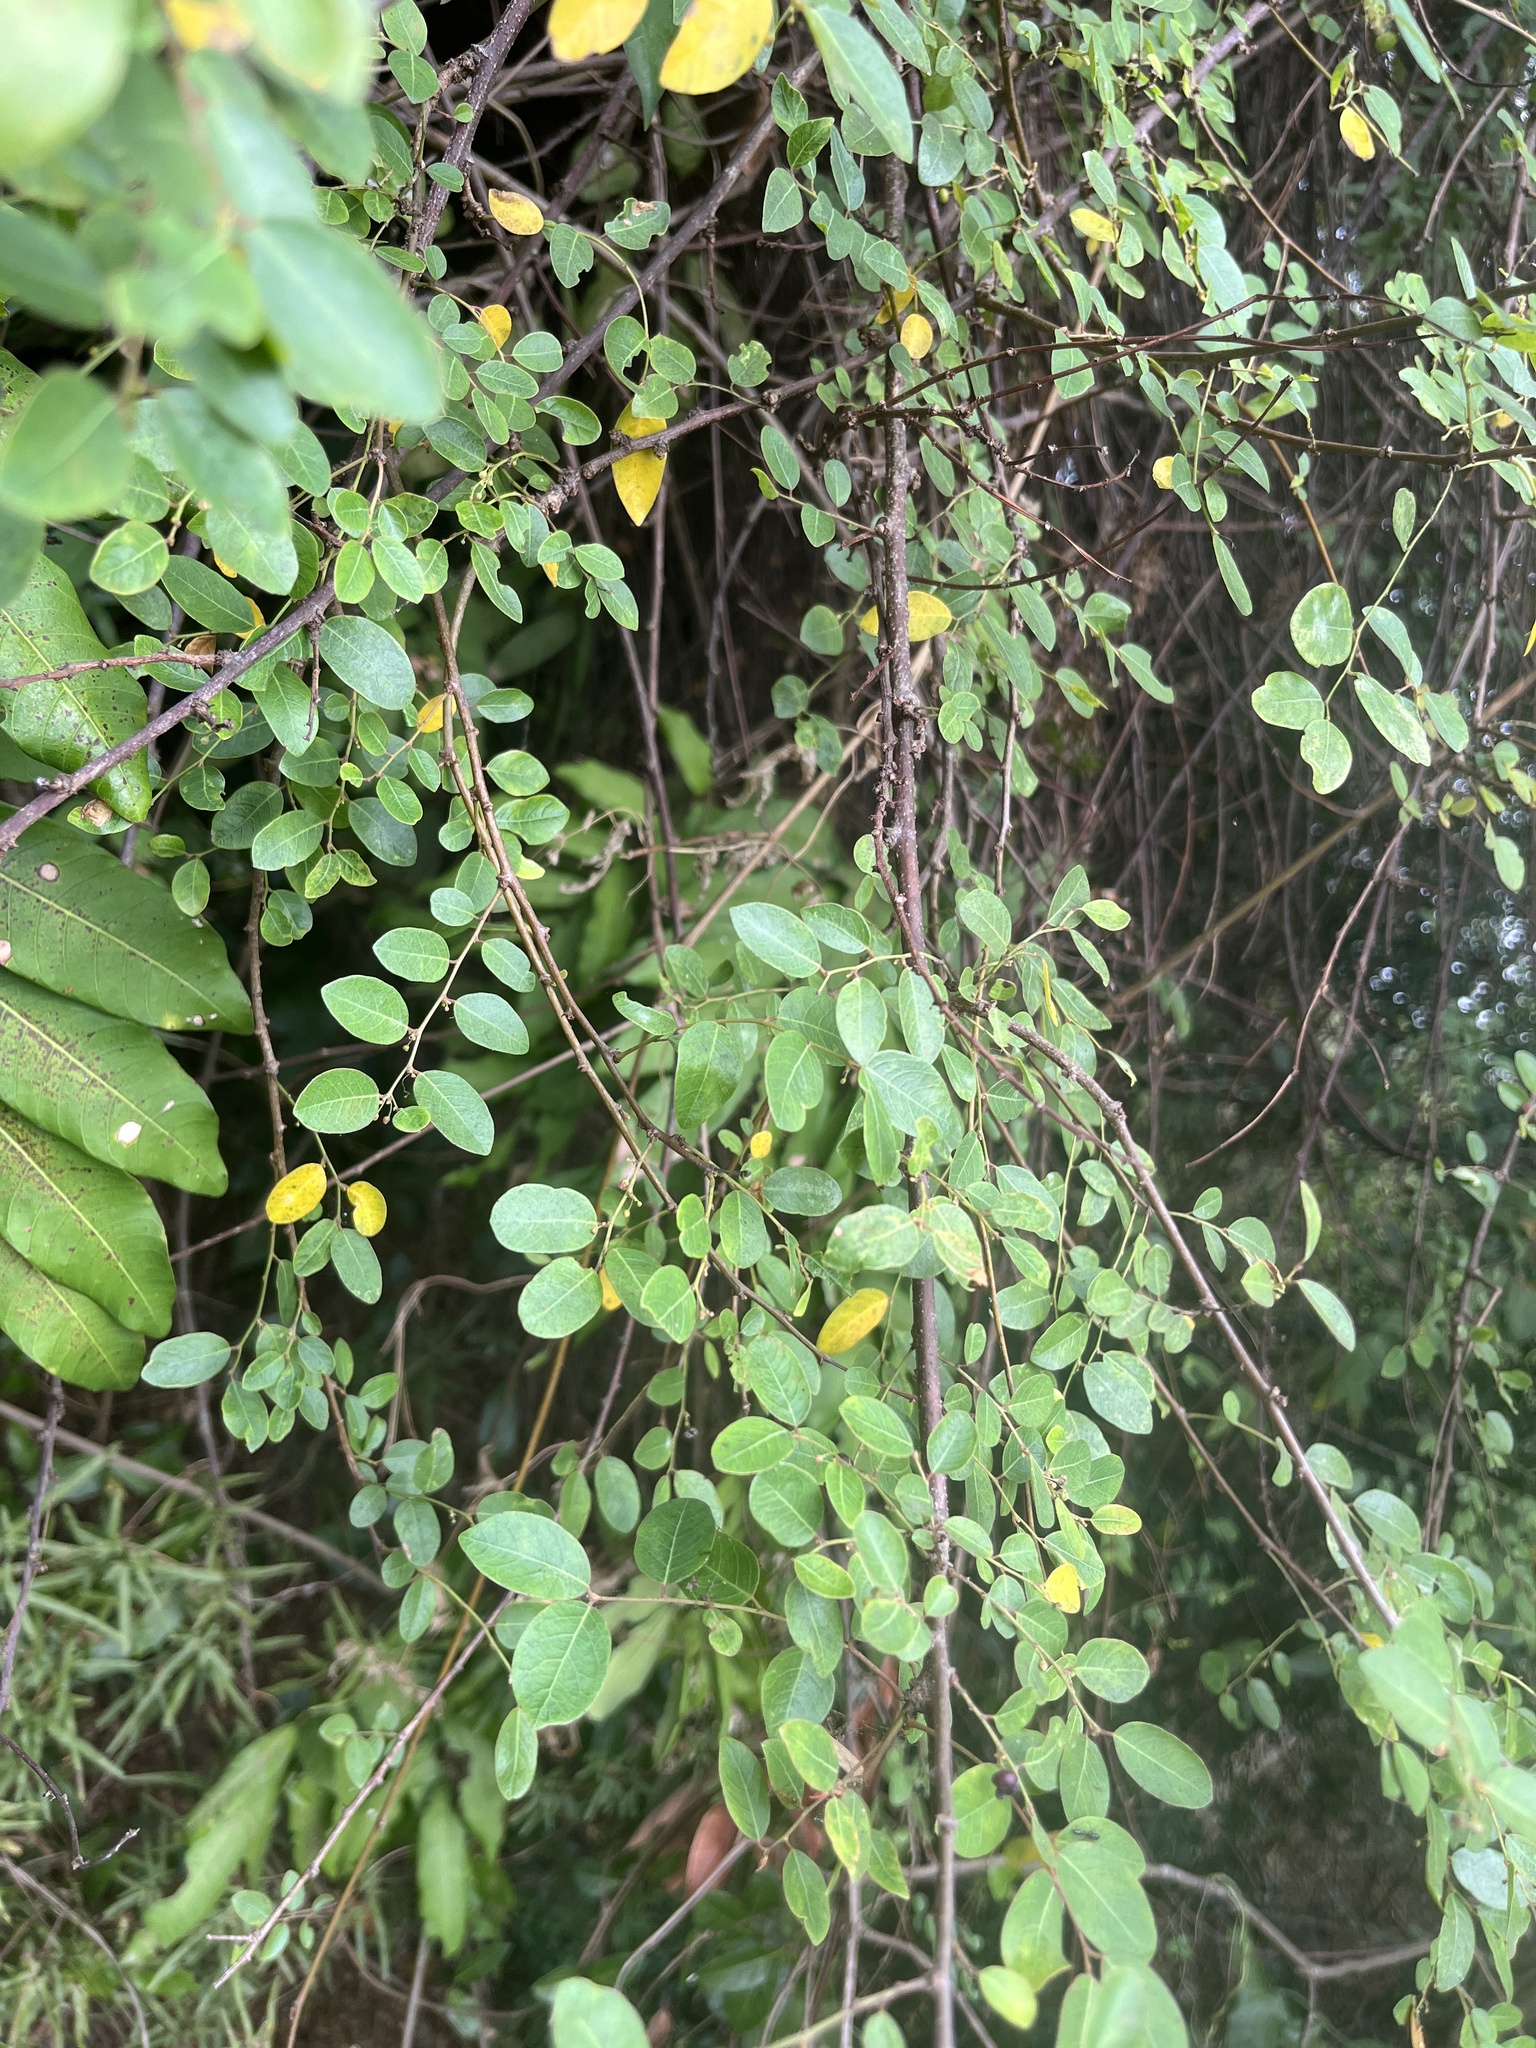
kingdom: Plantae
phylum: Tracheophyta
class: Magnoliopsida
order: Malpighiales
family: Phyllanthaceae
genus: Phyllanthus
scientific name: Phyllanthus reticulatus
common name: Potato bush
